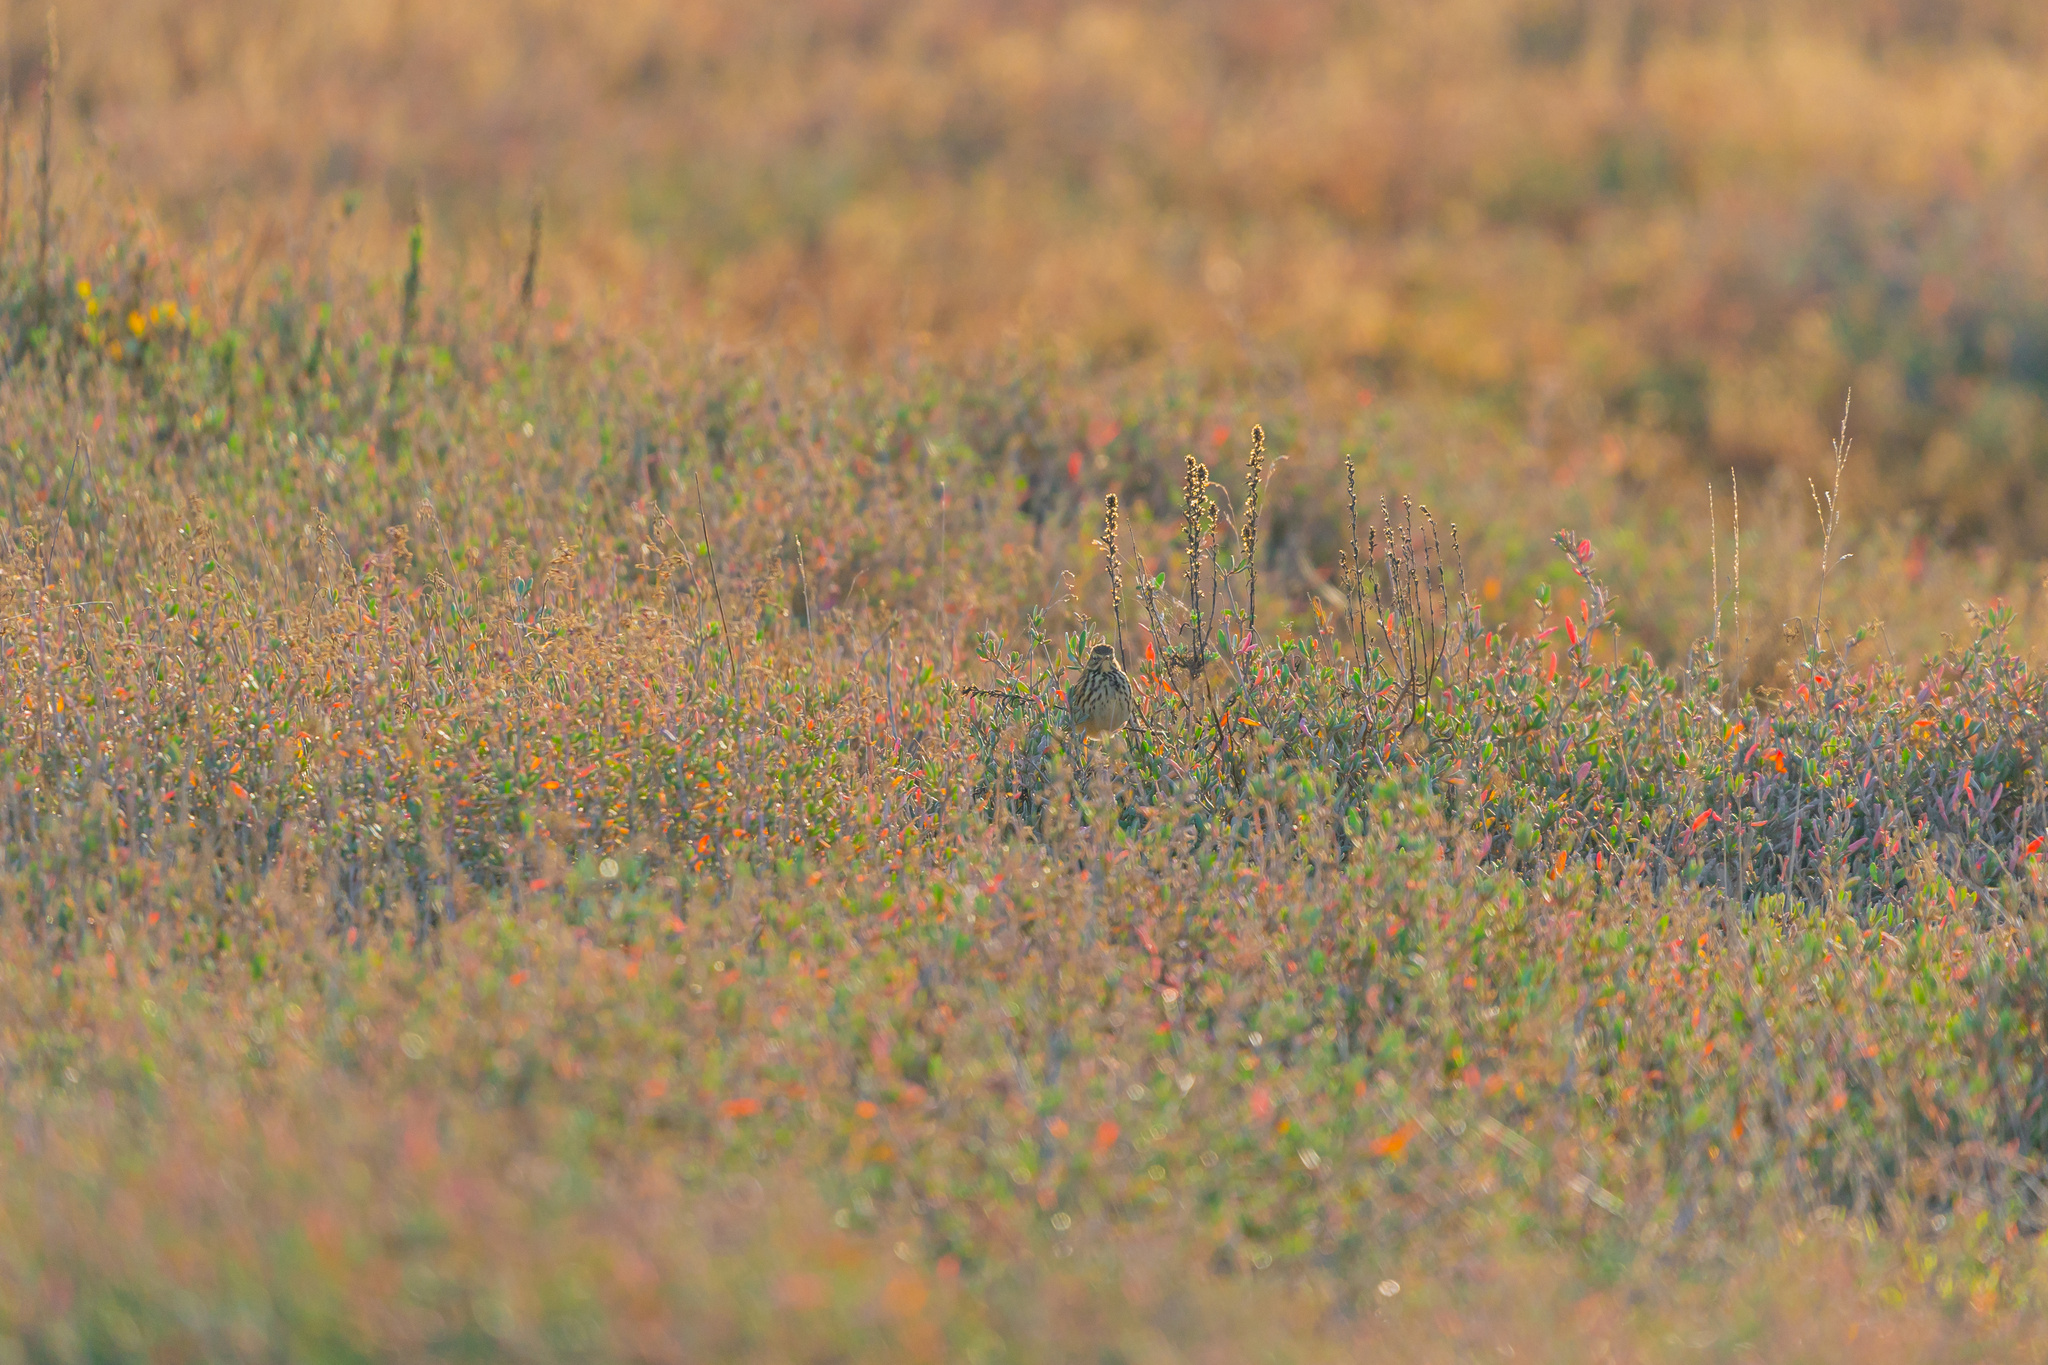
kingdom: Animalia
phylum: Chordata
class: Aves
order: Passeriformes
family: Motacillidae
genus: Anthus
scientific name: Anthus pratensis
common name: Meadow pipit
